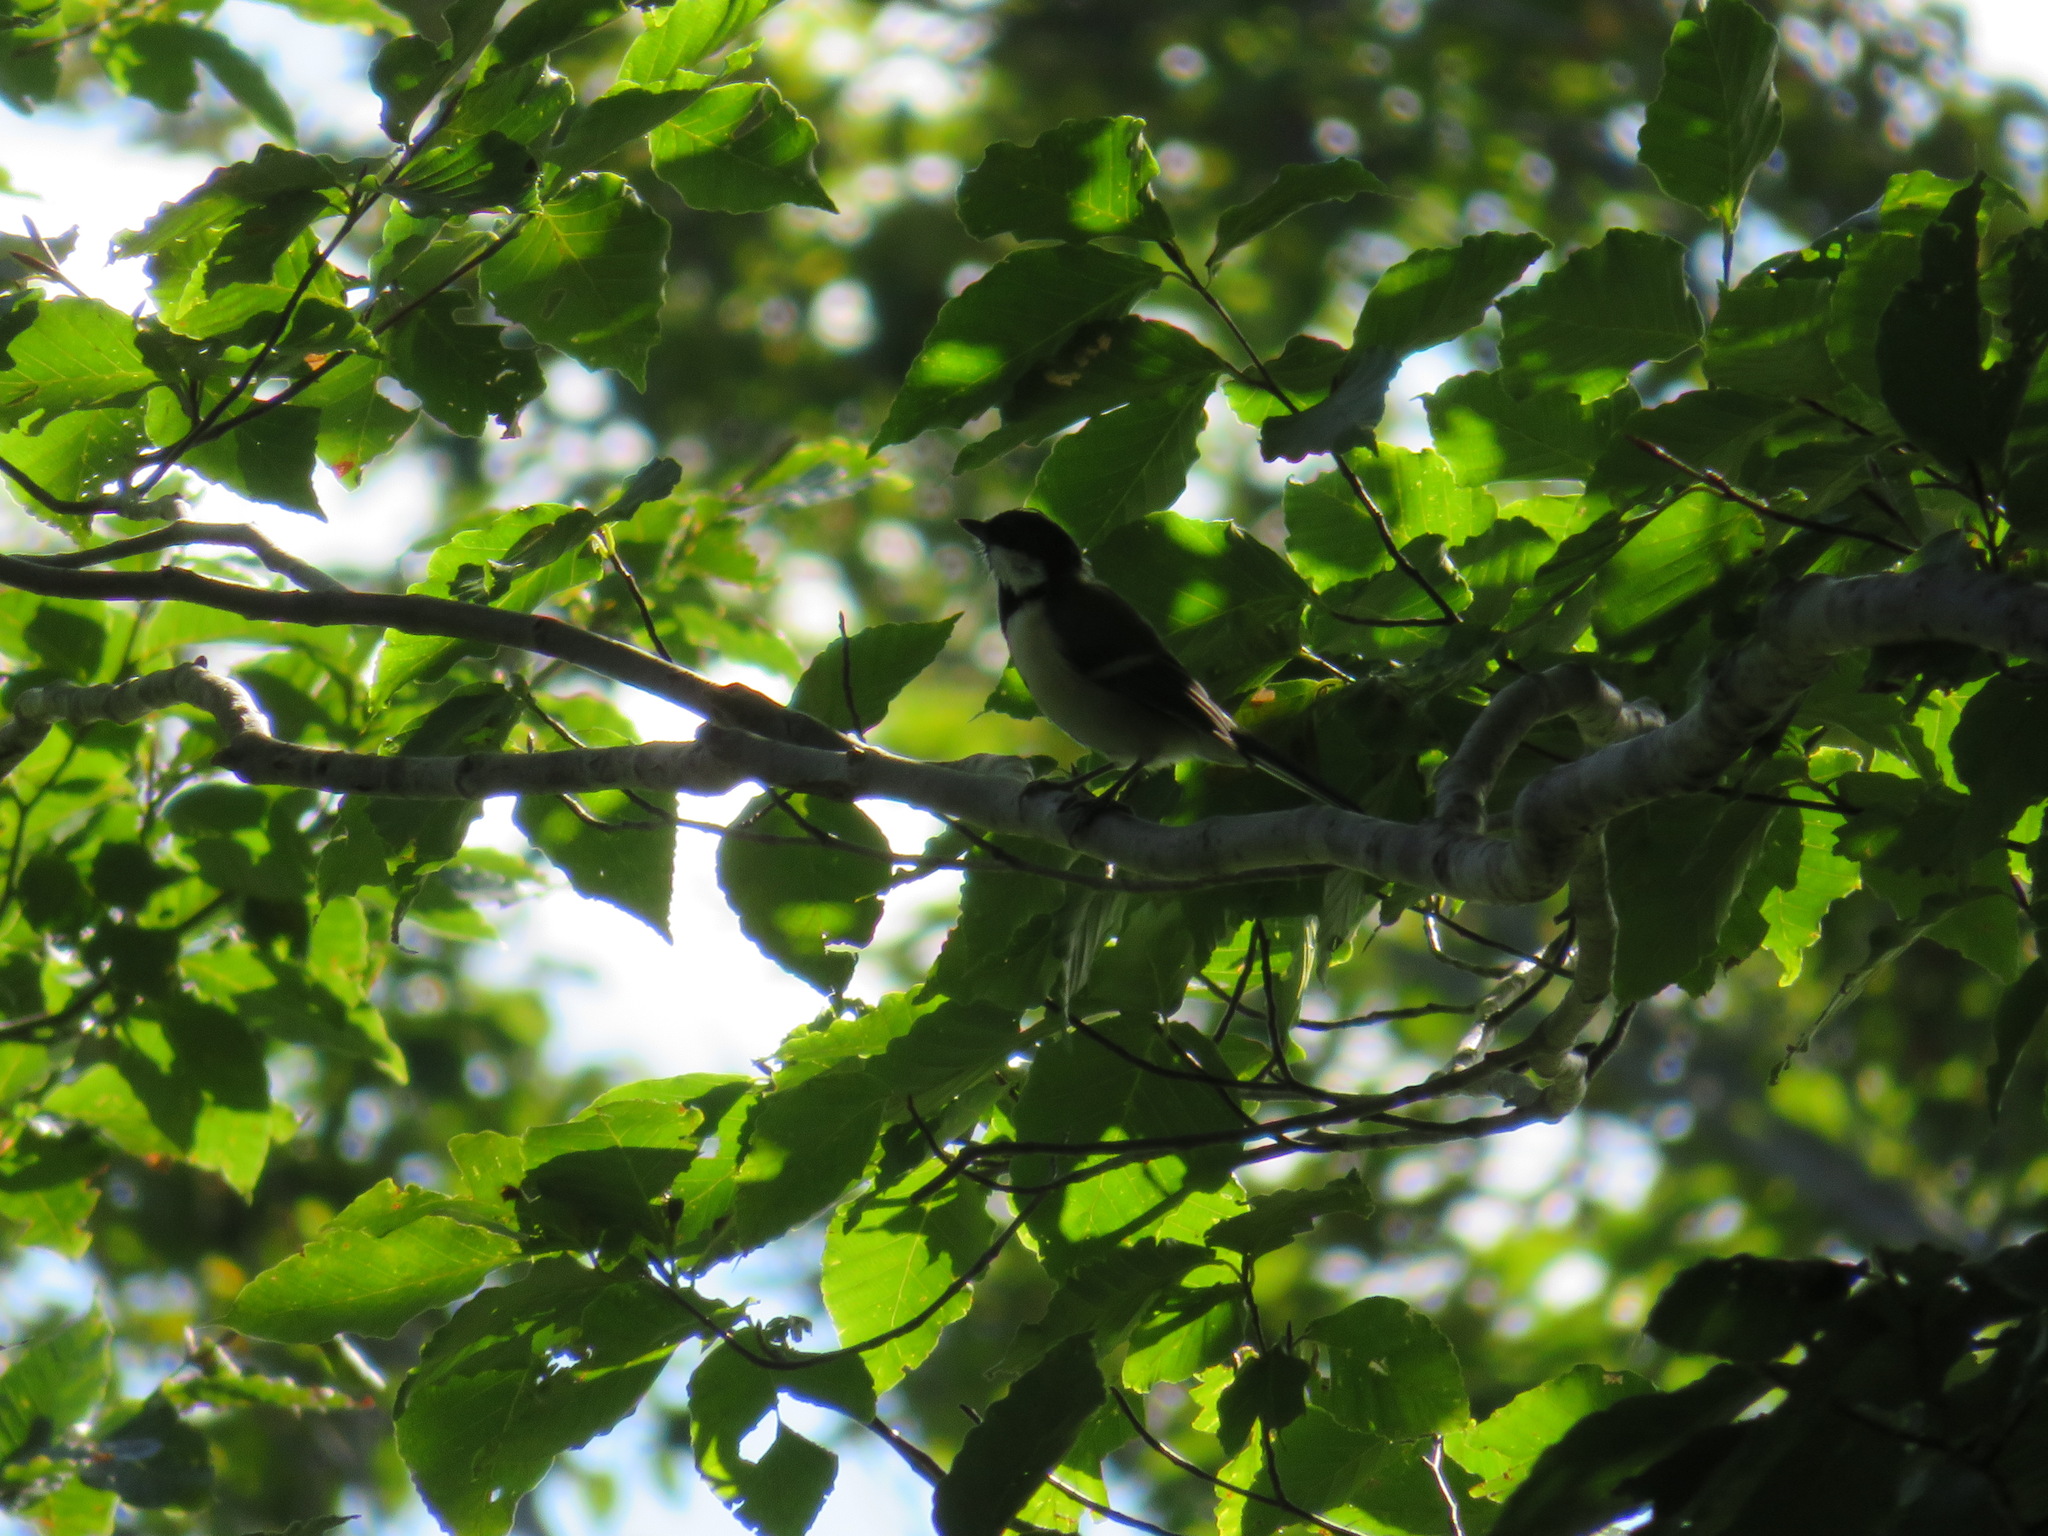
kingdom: Animalia
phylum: Chordata
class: Aves
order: Passeriformes
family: Paridae
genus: Parus
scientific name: Parus minor
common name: Japanese tit
